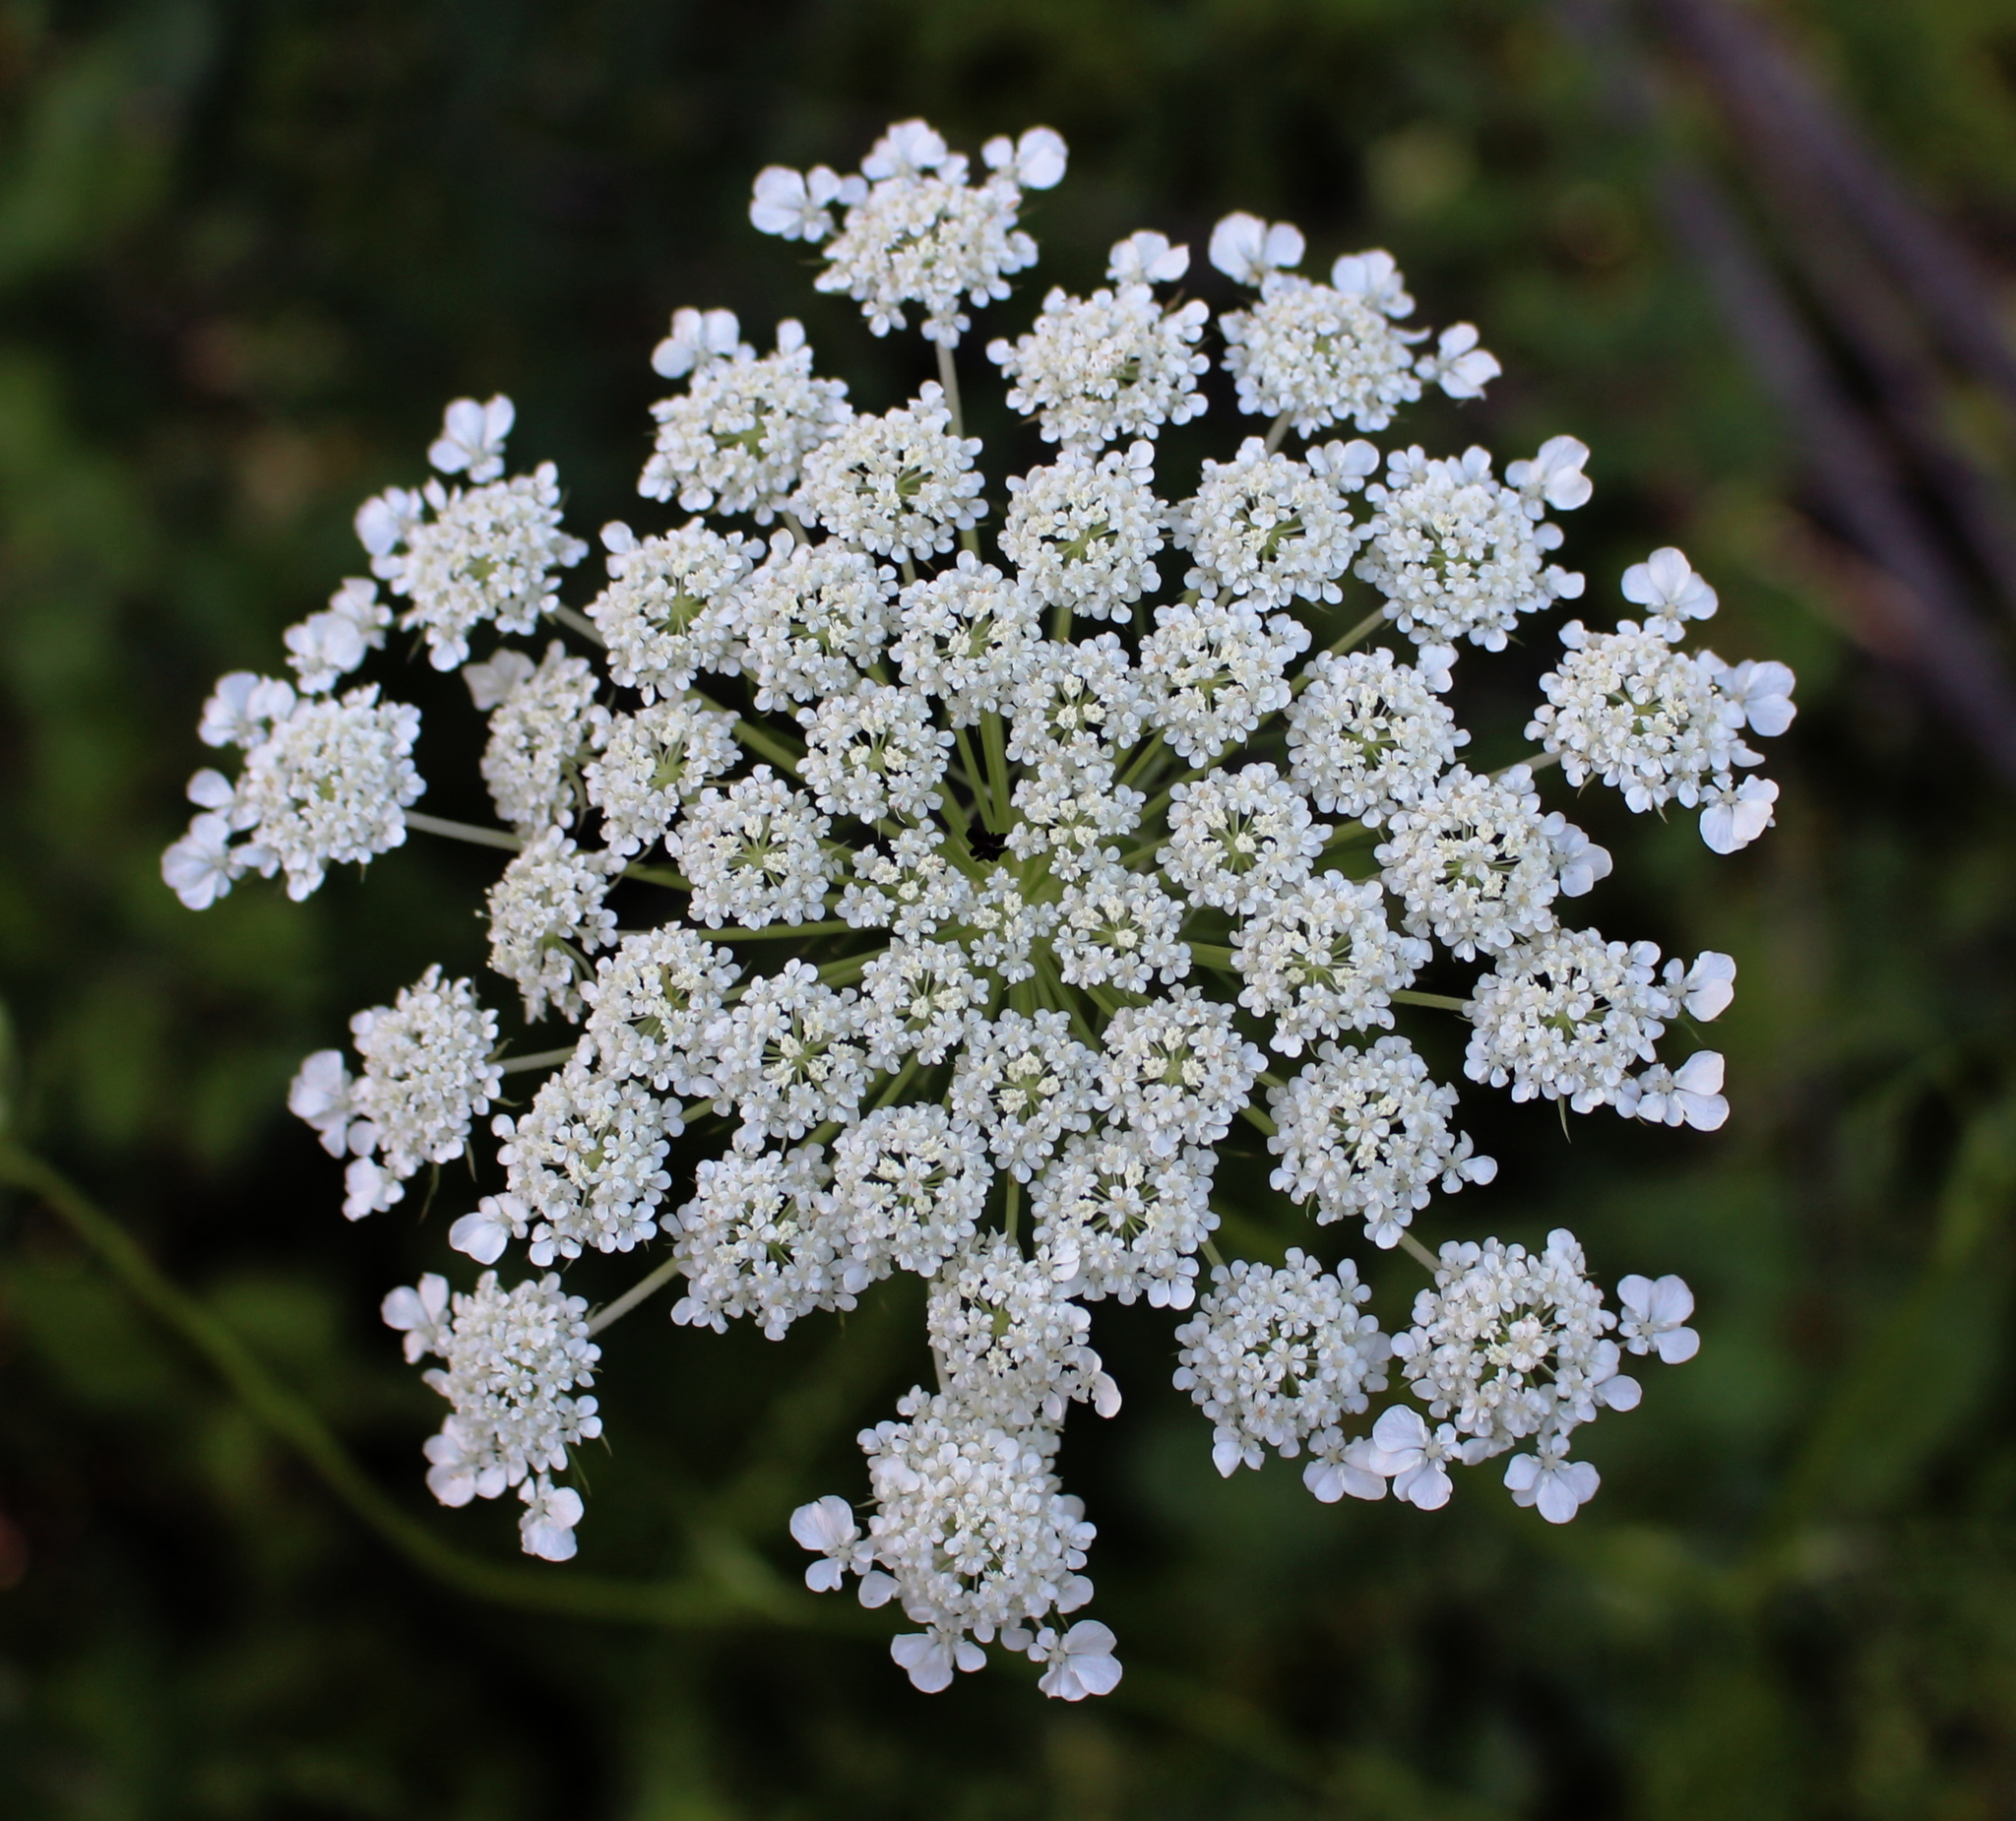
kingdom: Plantae
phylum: Tracheophyta
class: Magnoliopsida
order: Apiales
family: Apiaceae
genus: Daucus
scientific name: Daucus carota
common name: Wild carrot
